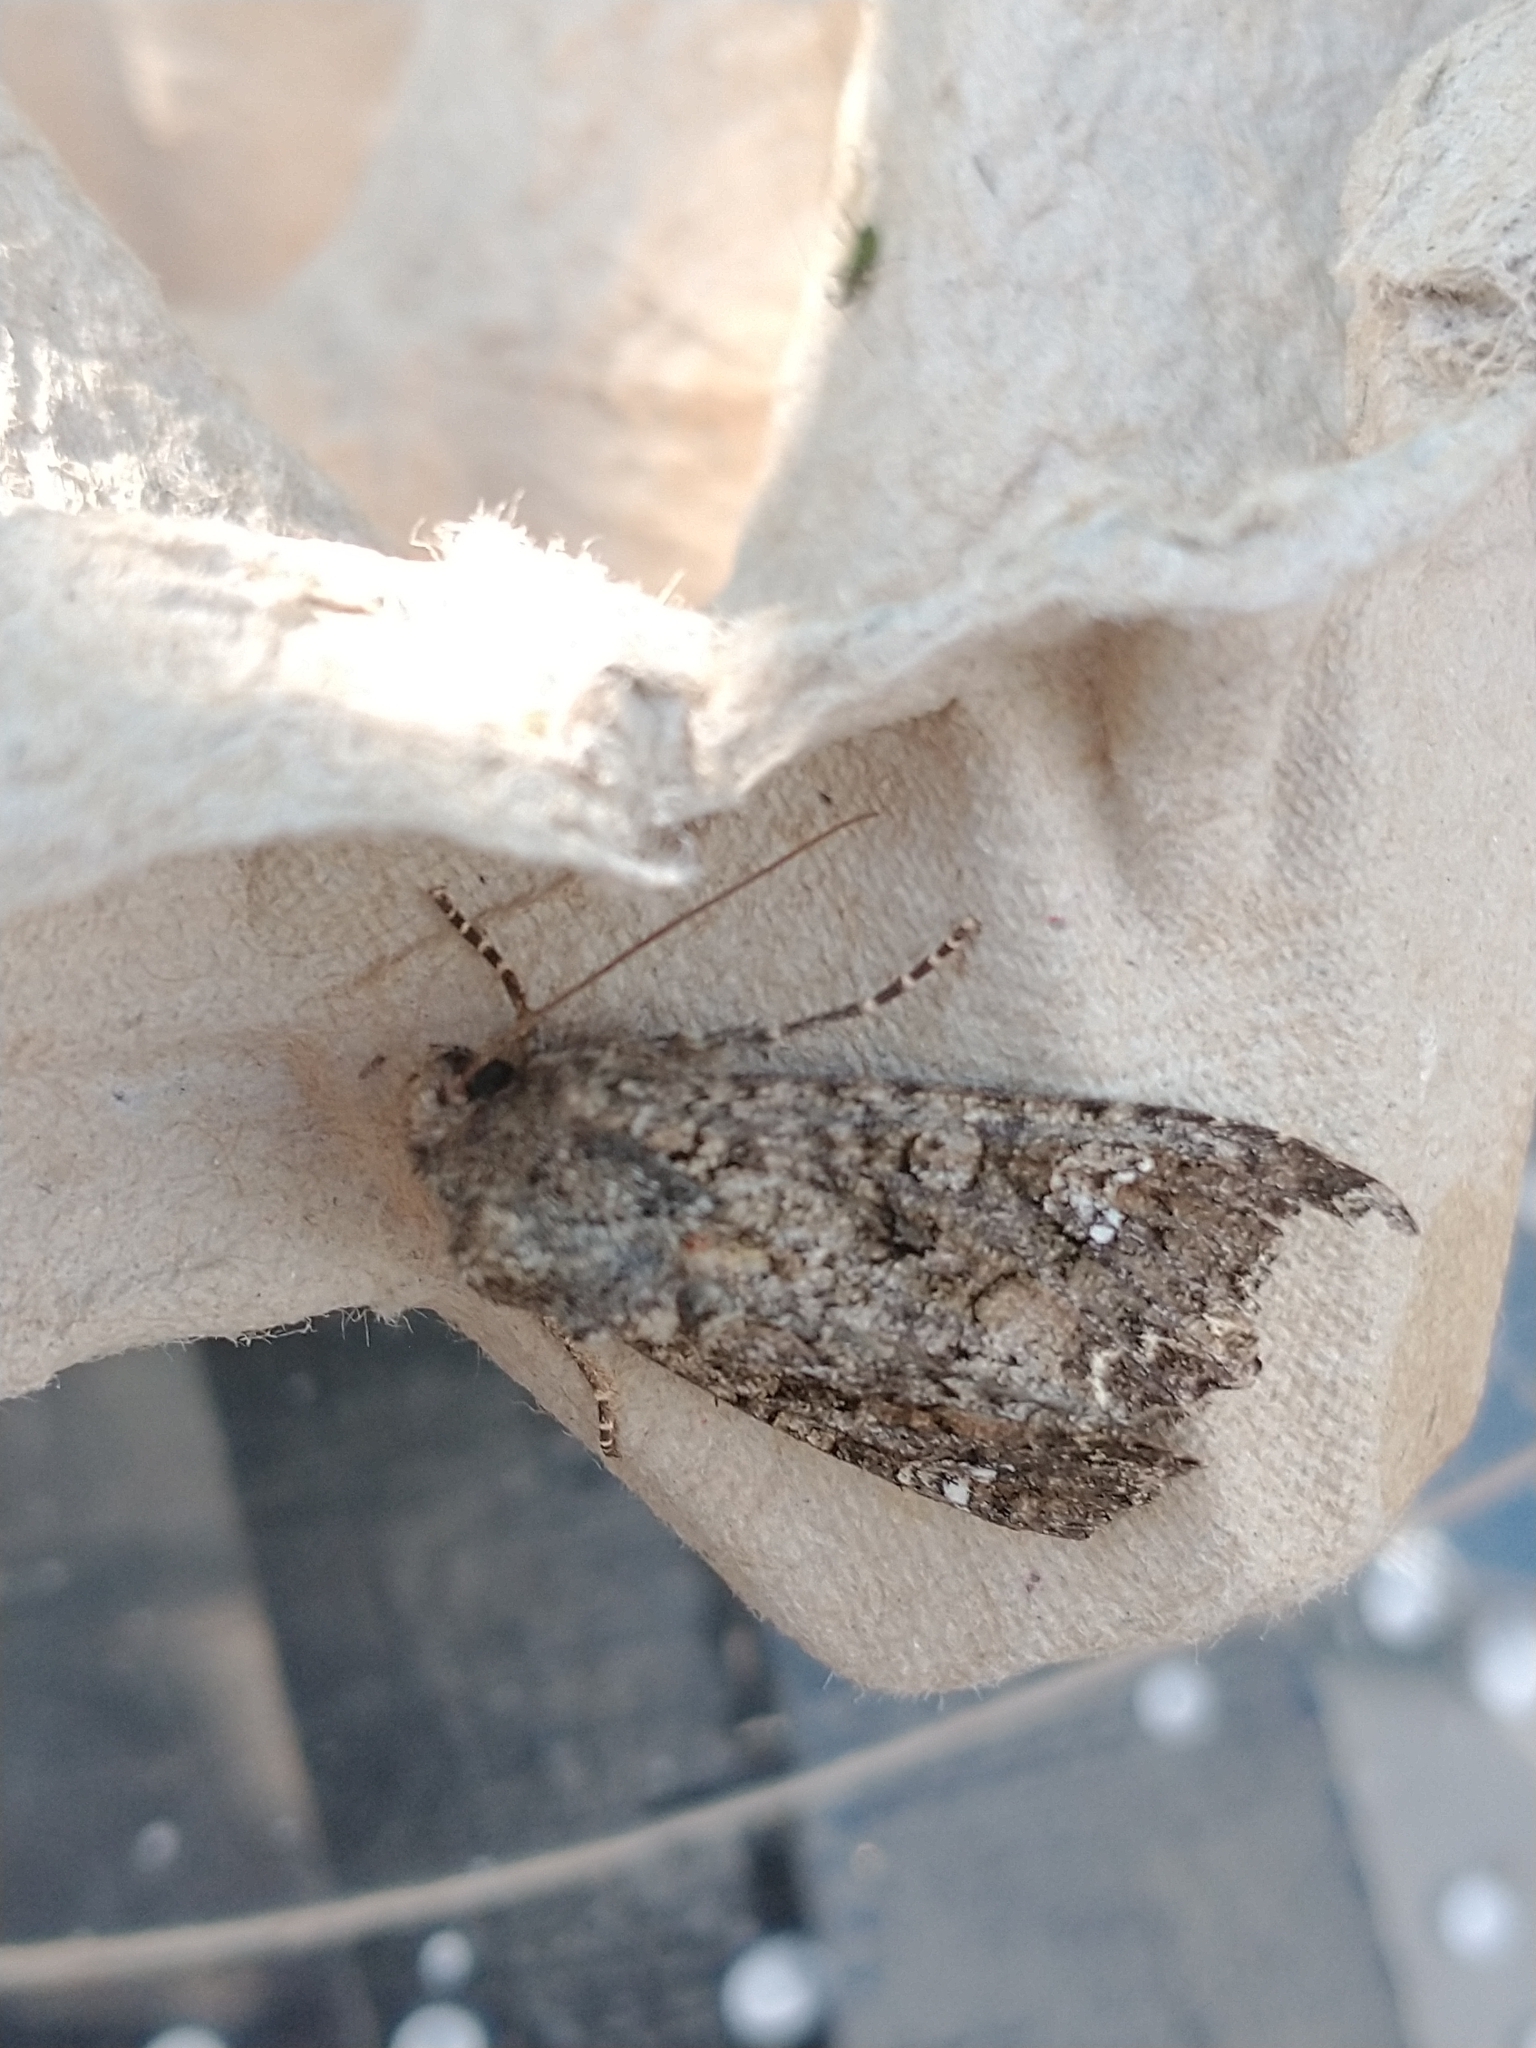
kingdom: Animalia
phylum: Arthropoda
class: Insecta
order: Lepidoptera
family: Noctuidae
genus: Mamestra
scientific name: Mamestra brassicae
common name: Cabbage moth
